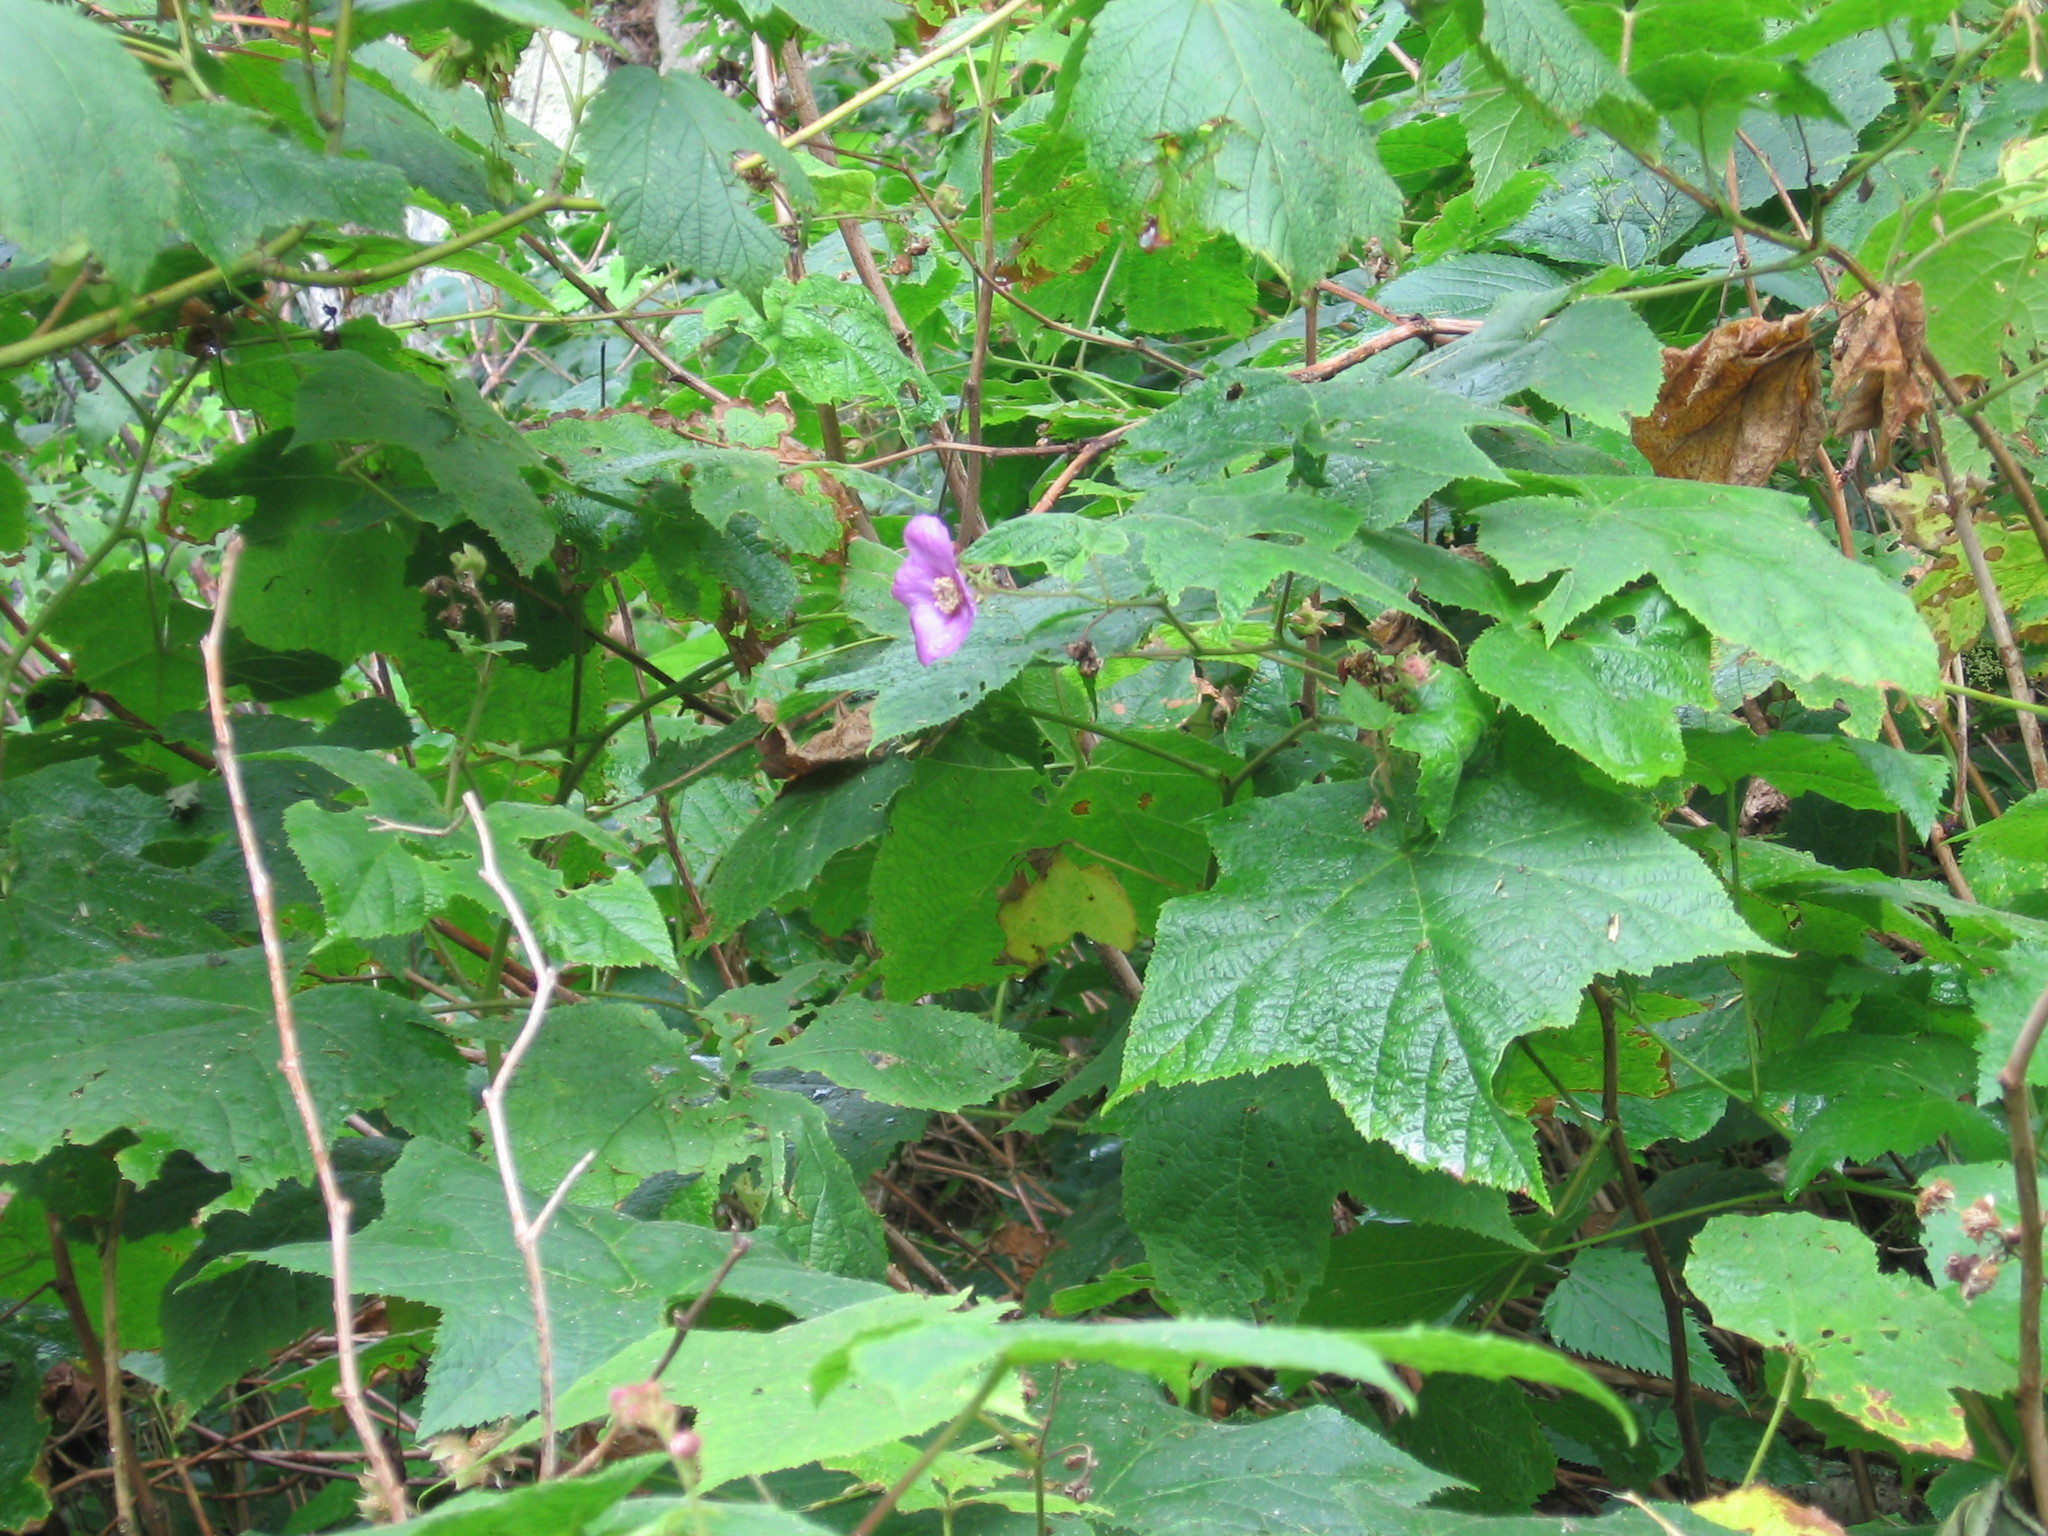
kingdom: Plantae
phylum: Tracheophyta
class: Magnoliopsida
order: Rosales
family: Rosaceae
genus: Rubus
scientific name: Rubus odoratus
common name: Purple-flowered raspberry
